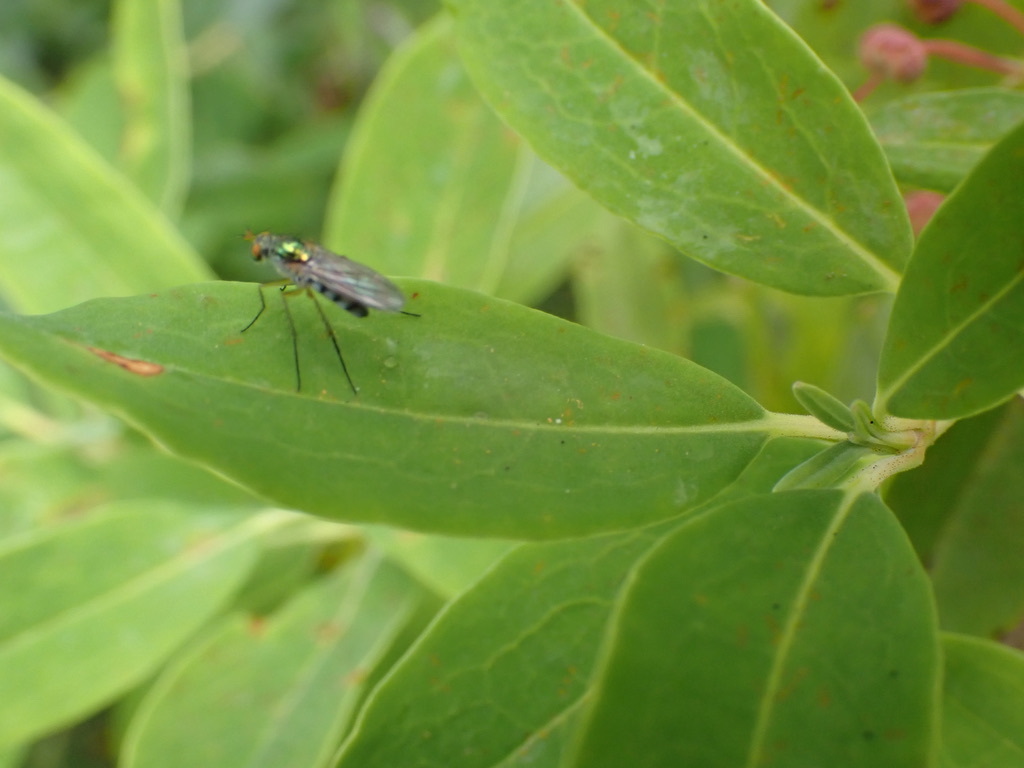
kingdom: Animalia
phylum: Arthropoda
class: Insecta
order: Diptera
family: Dolichopodidae
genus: Dolichopus
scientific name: Dolichopus
